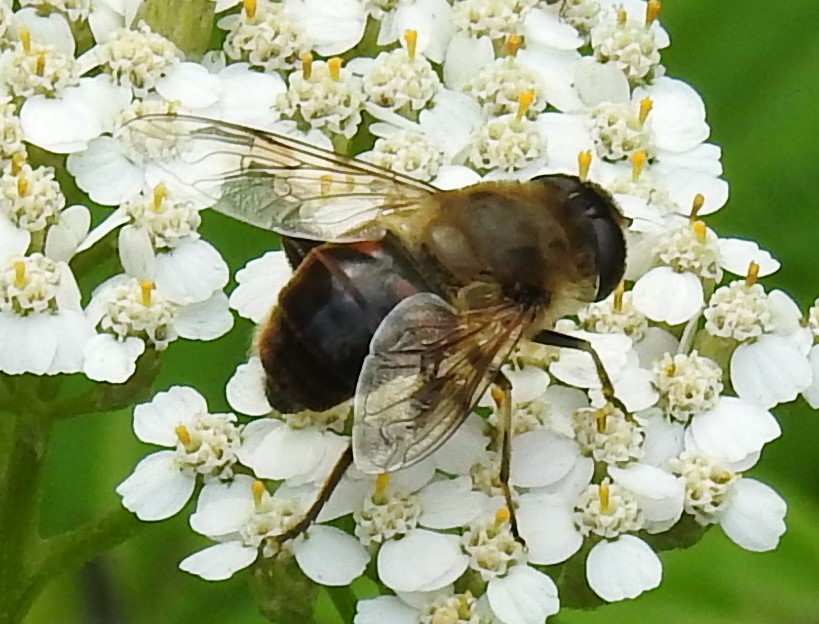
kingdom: Animalia
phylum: Arthropoda
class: Insecta
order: Diptera
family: Syrphidae
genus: Eristalis
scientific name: Eristalis tenax
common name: Drone fly
